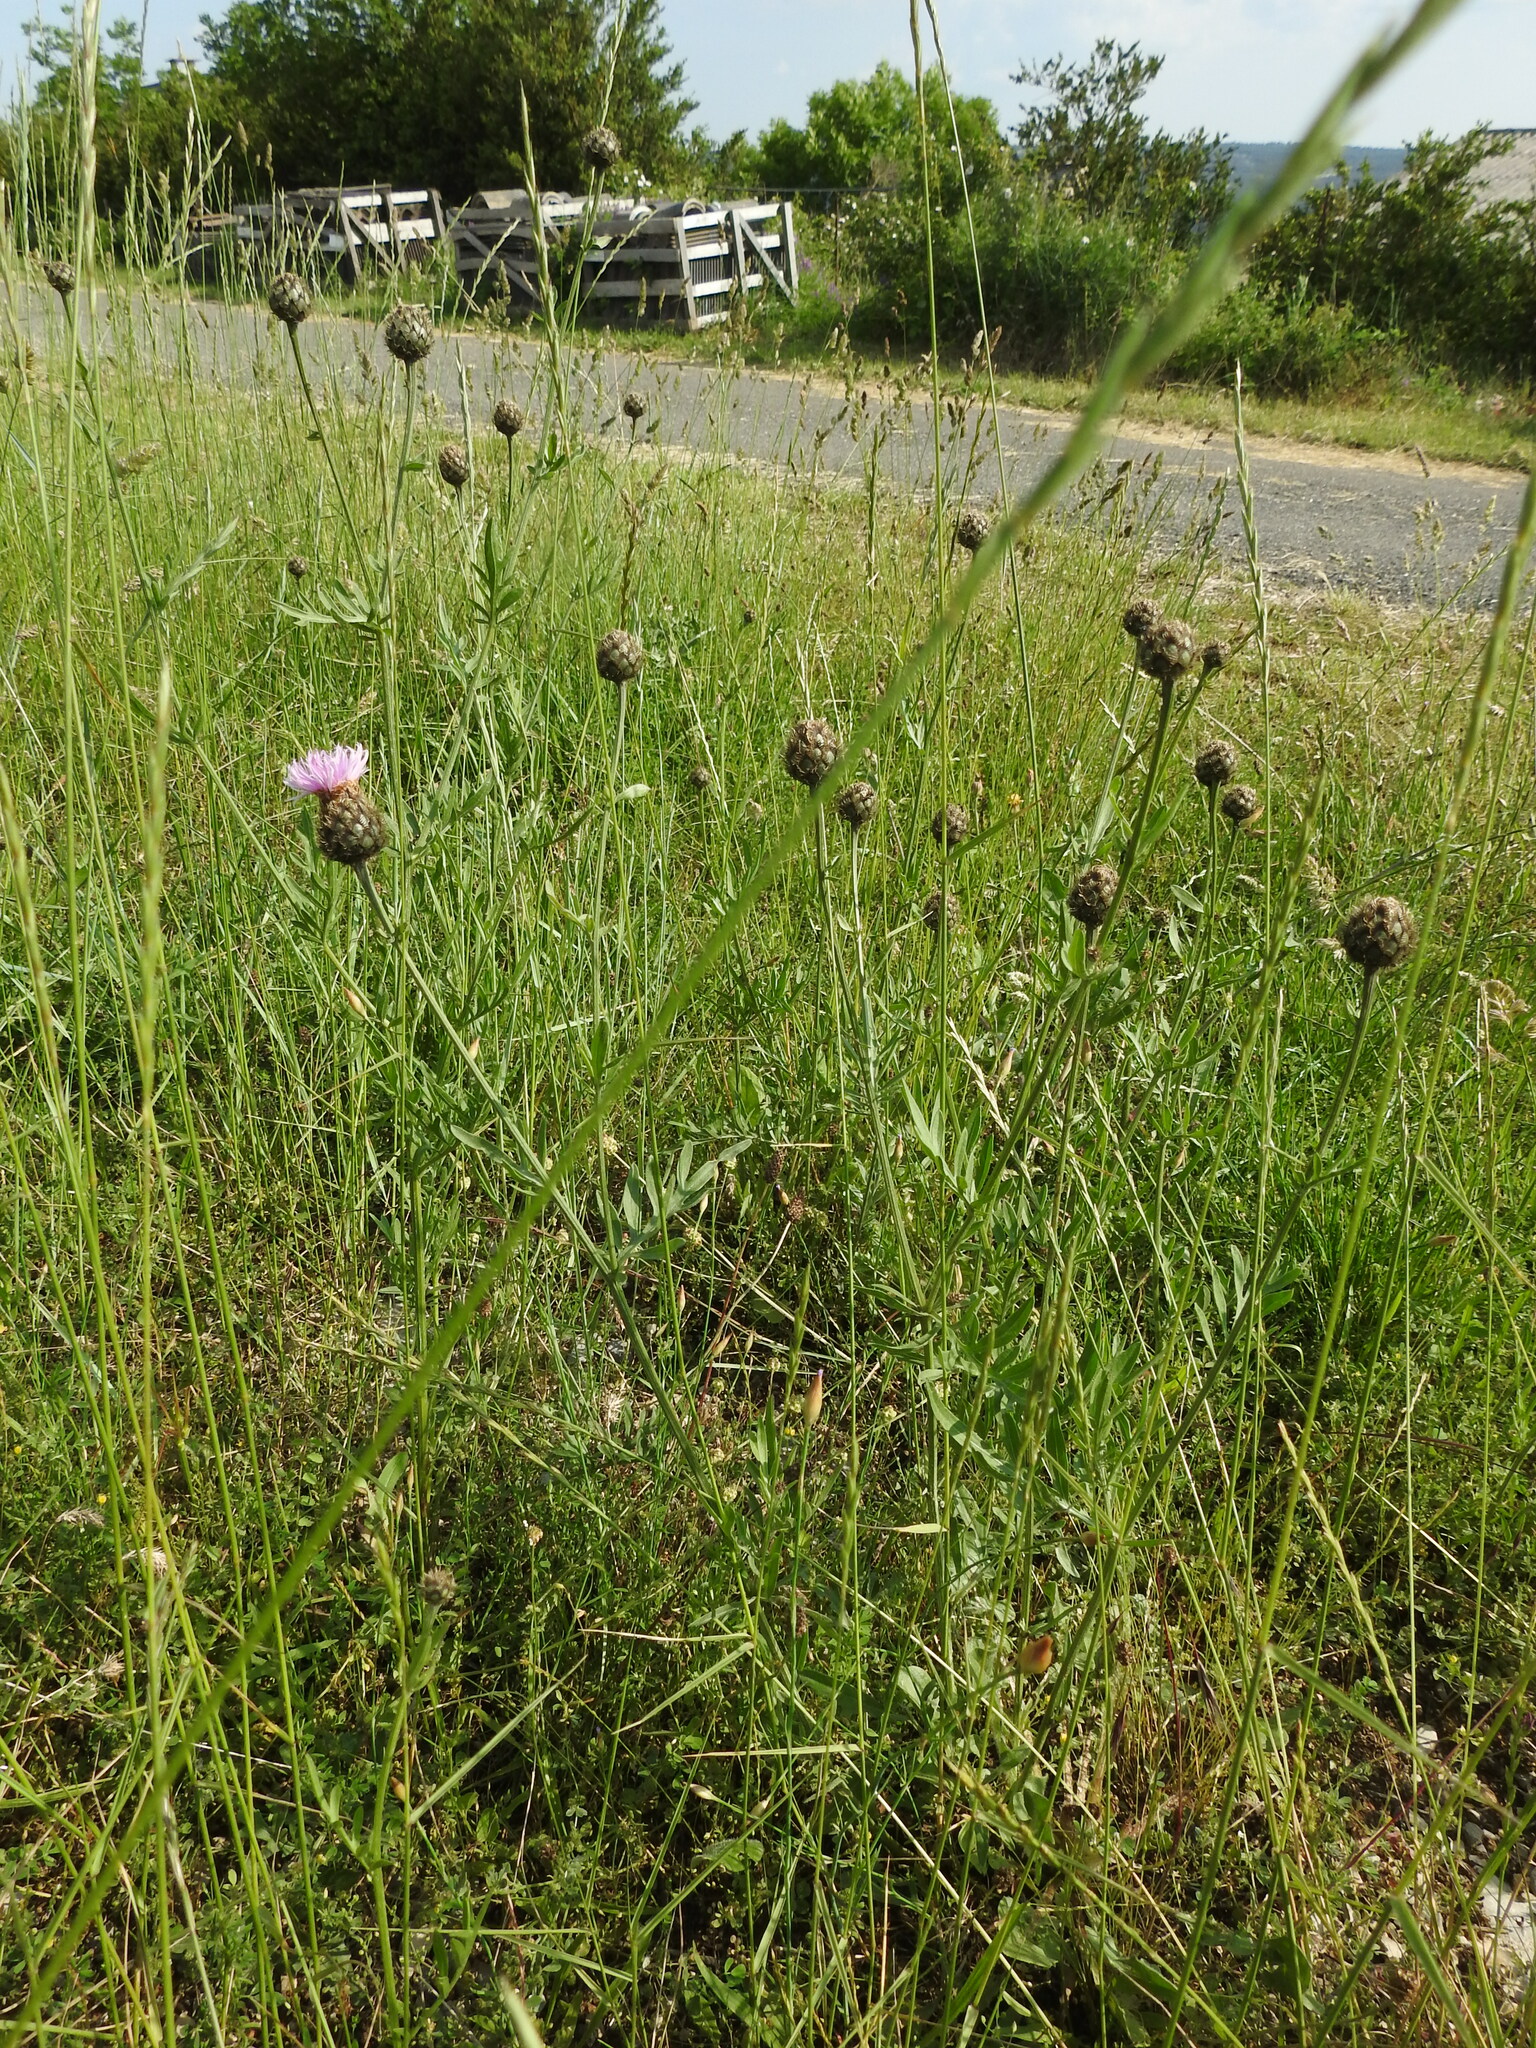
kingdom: Plantae
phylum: Tracheophyta
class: Magnoliopsida
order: Asterales
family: Asteraceae
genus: Centaurea
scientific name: Centaurea scabiosa
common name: Greater knapweed
